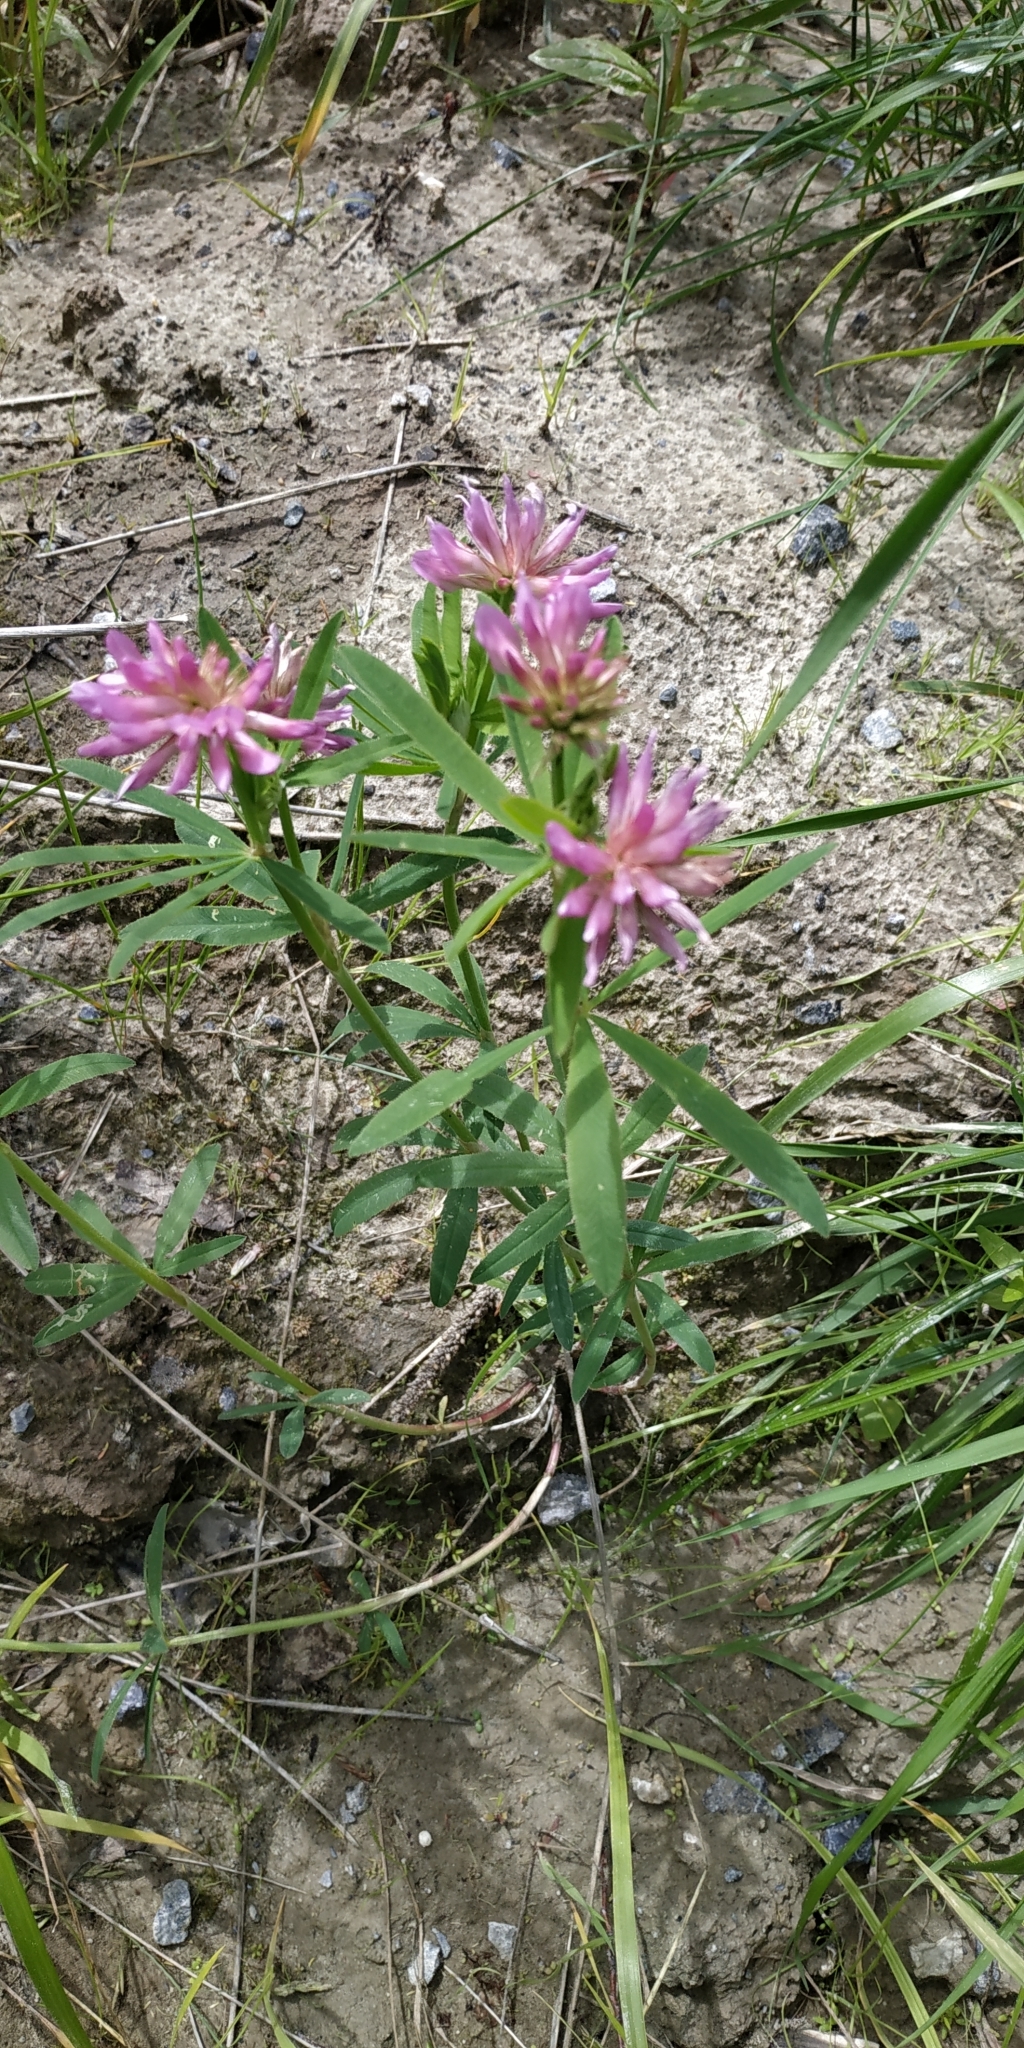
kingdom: Plantae
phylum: Tracheophyta
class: Magnoliopsida
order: Fabales
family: Fabaceae
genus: Trifolium
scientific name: Trifolium lupinaster
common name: Lupine clover
